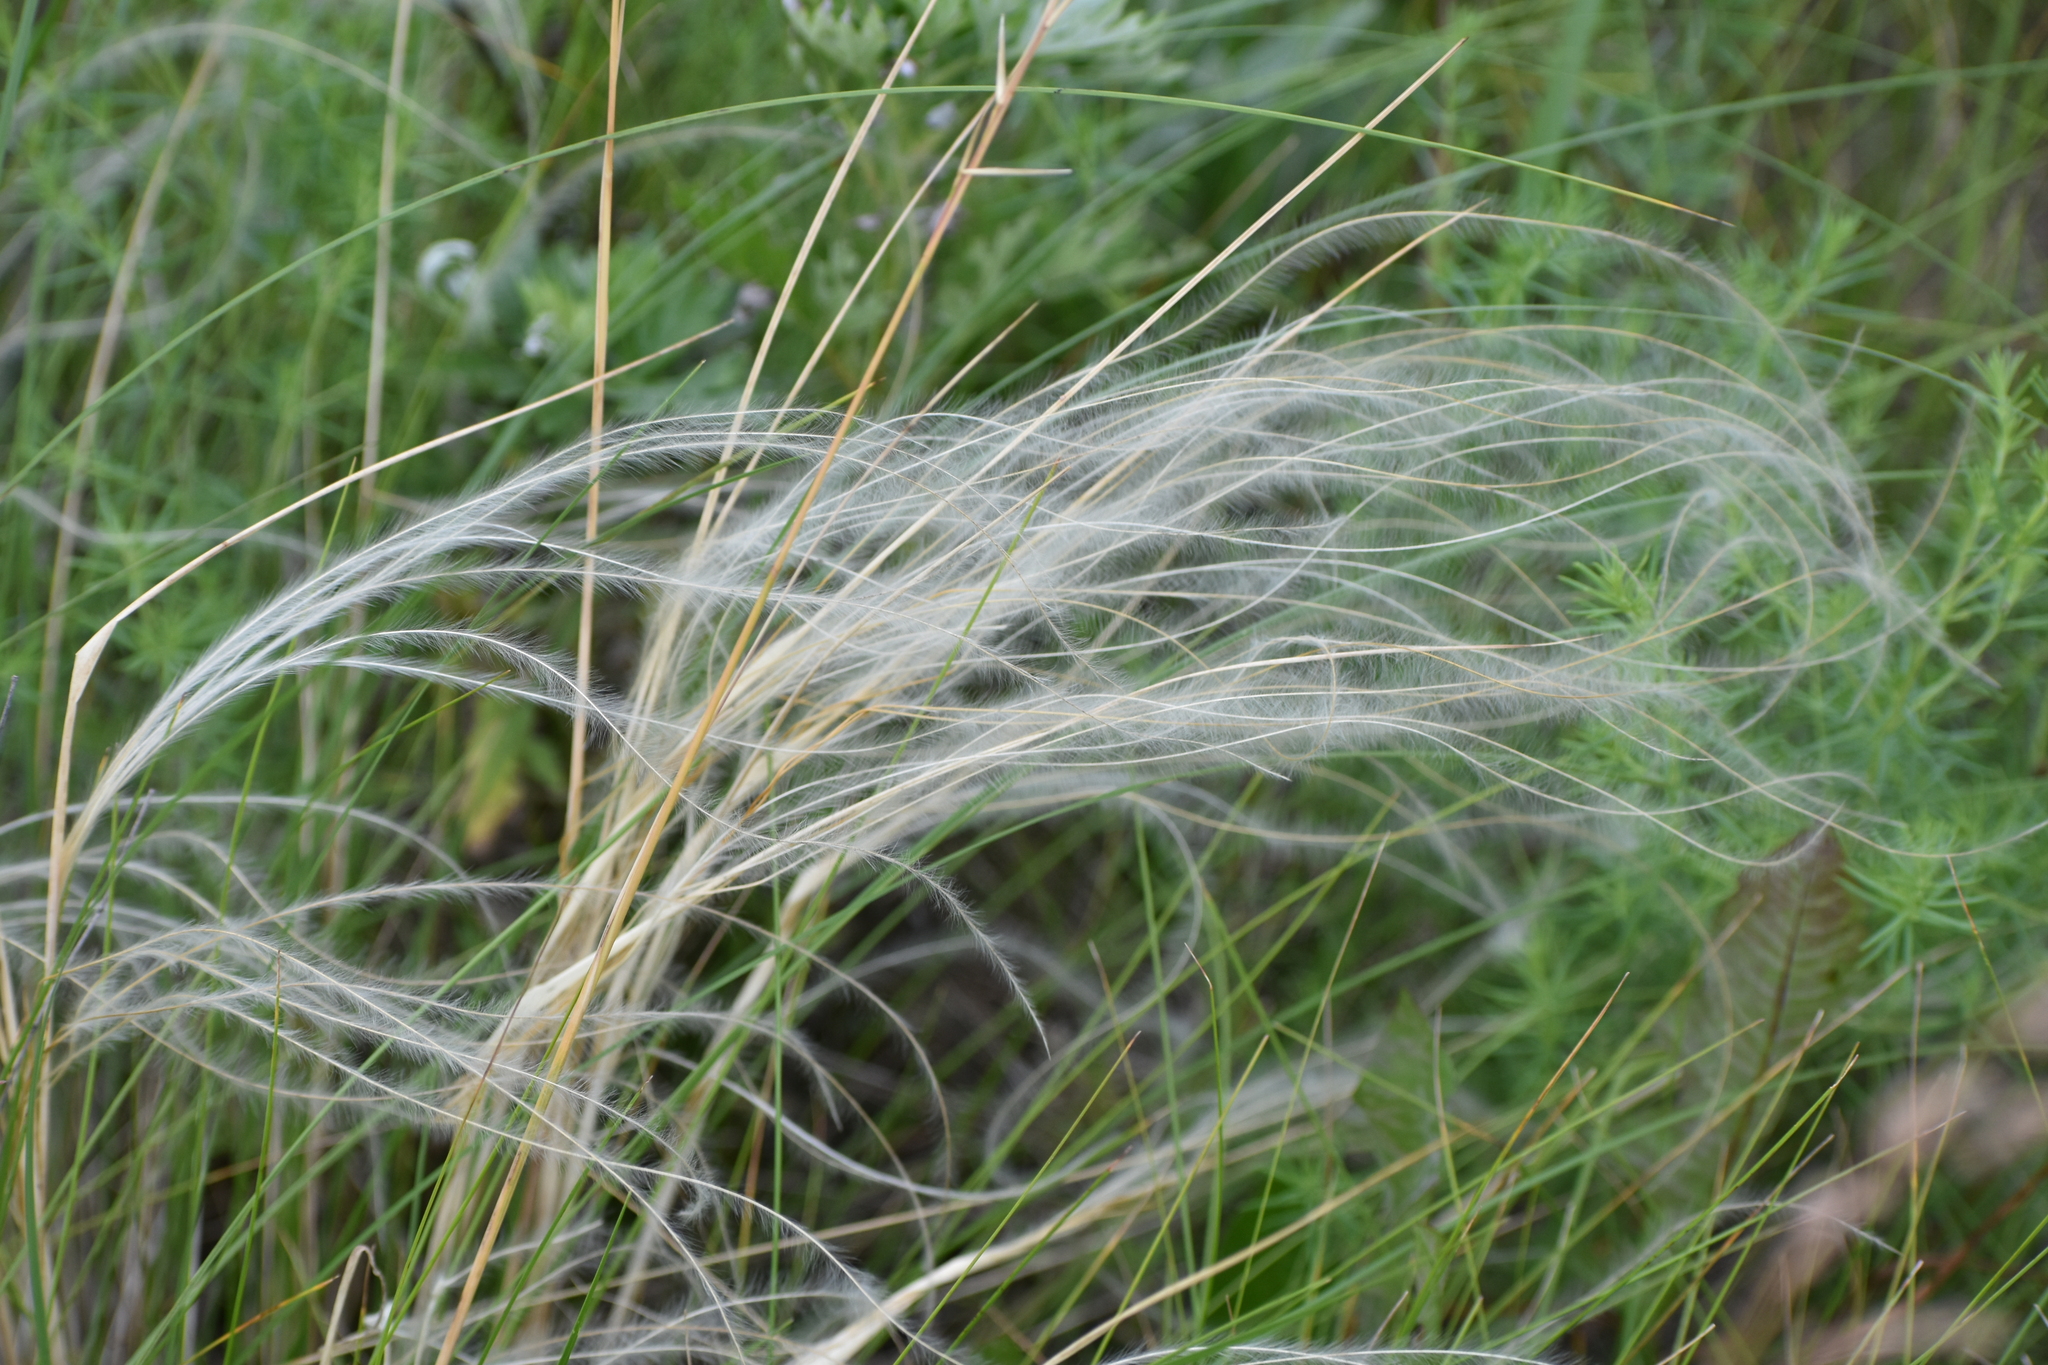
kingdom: Plantae
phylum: Tracheophyta
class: Liliopsida
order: Poales
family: Poaceae
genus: Stipa
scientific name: Stipa pennata
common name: European feather grass
